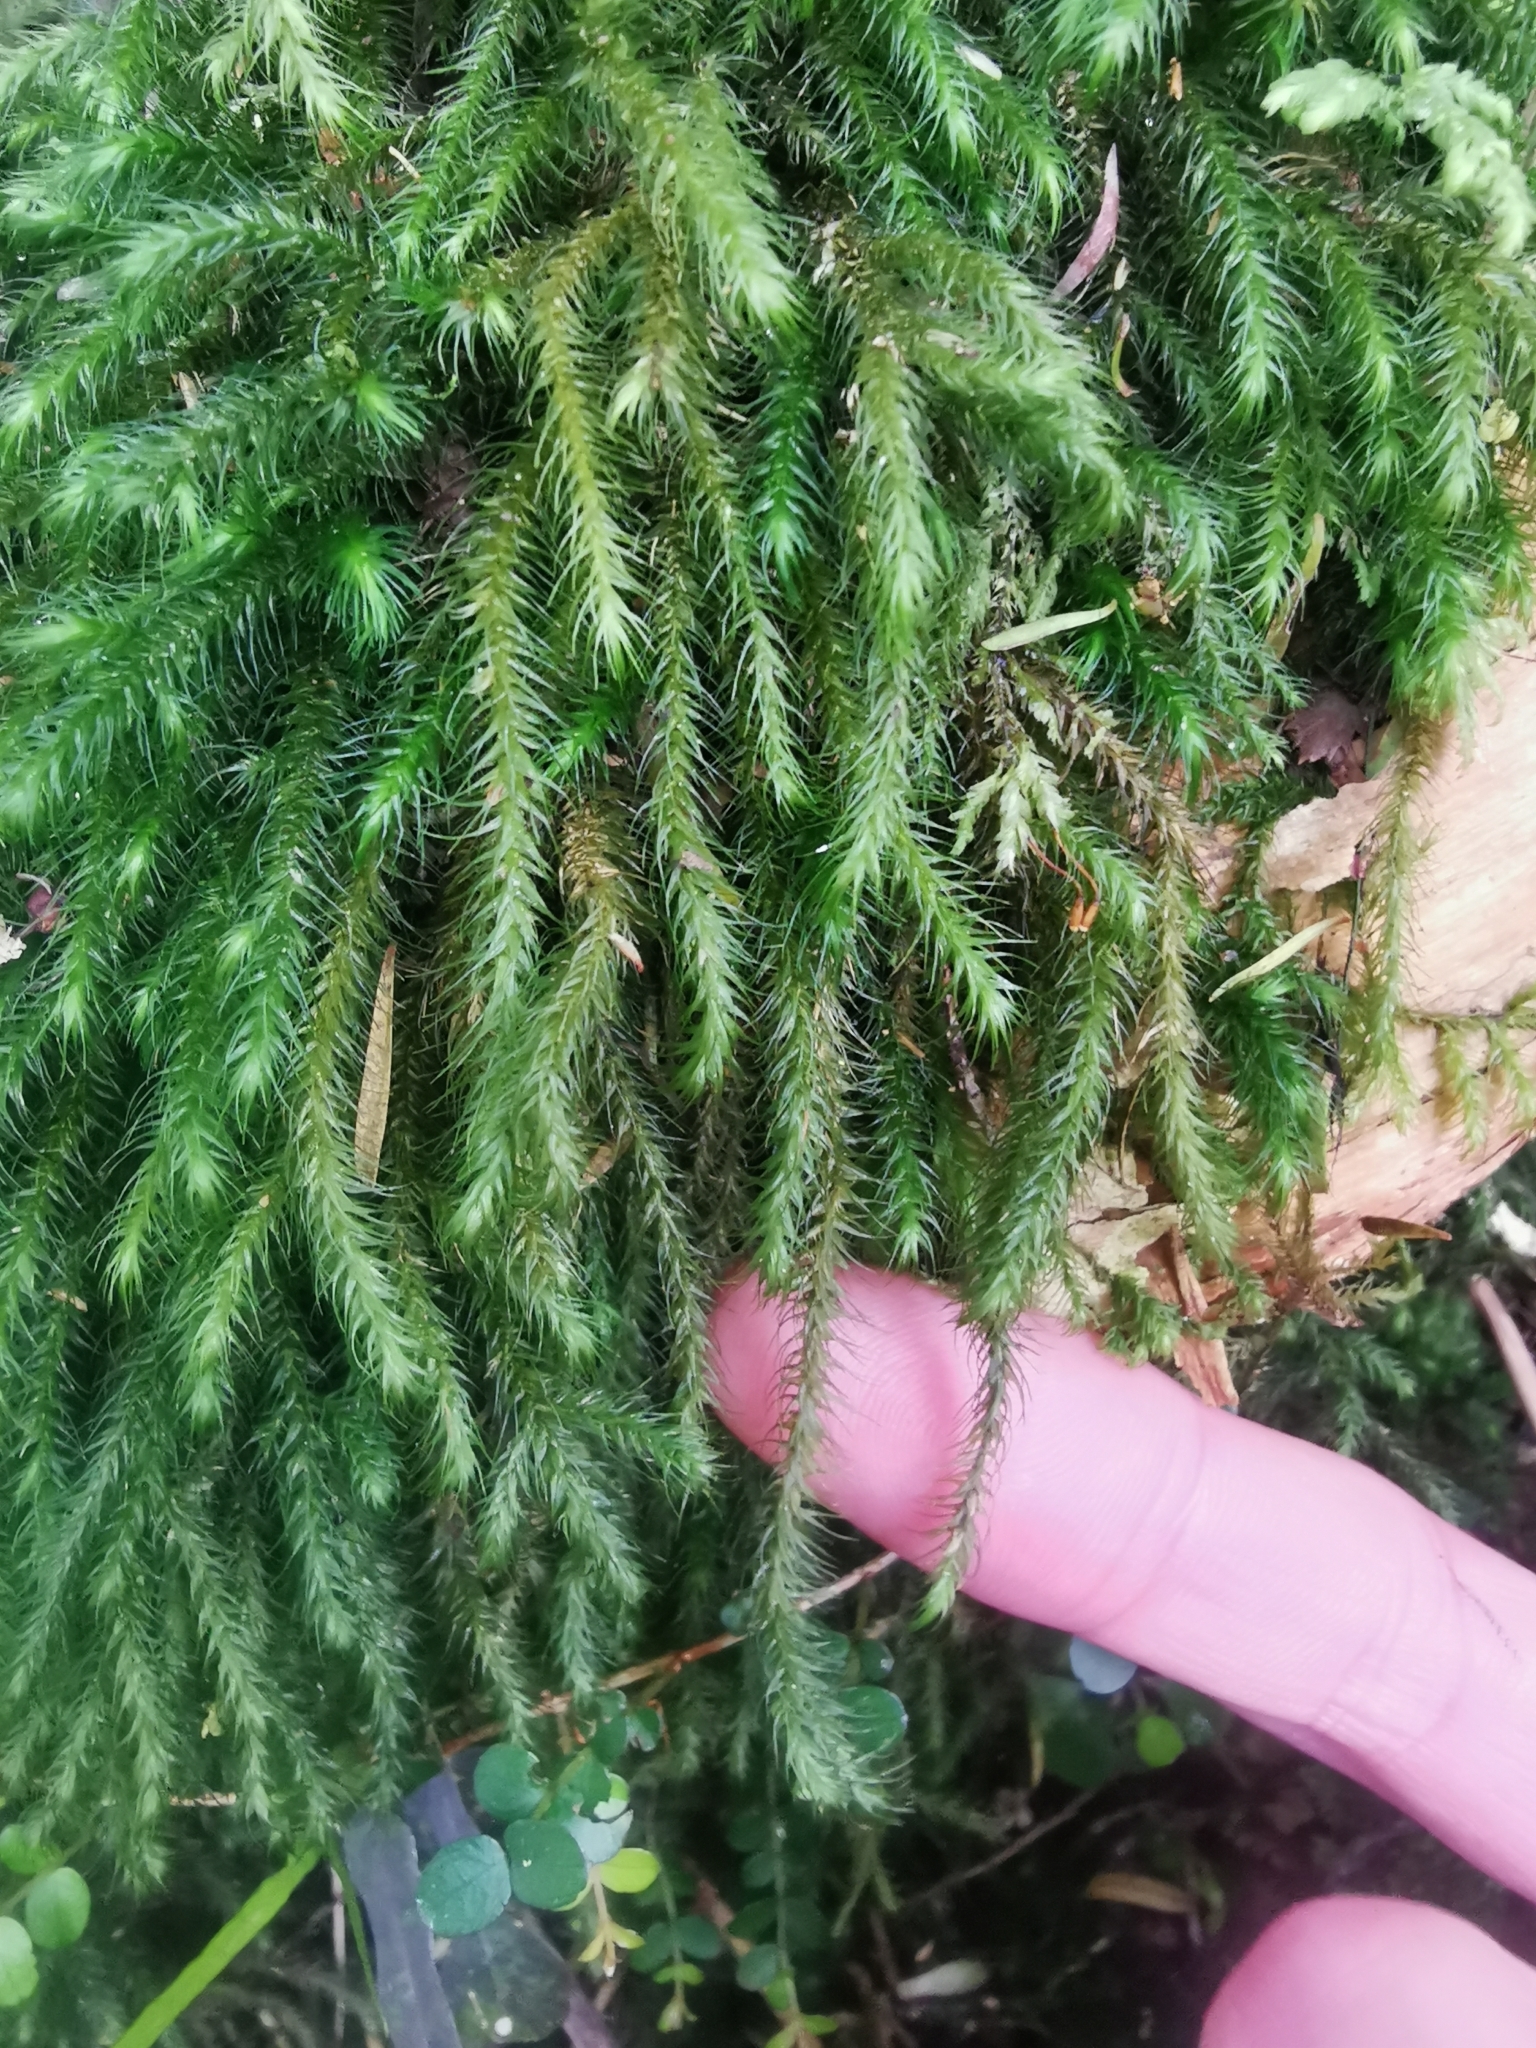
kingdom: Plantae
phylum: Bryophyta
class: Bryopsida
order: Hypnales
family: Neckeraceae
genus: Echinodiopsis
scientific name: Echinodiopsis hispida
